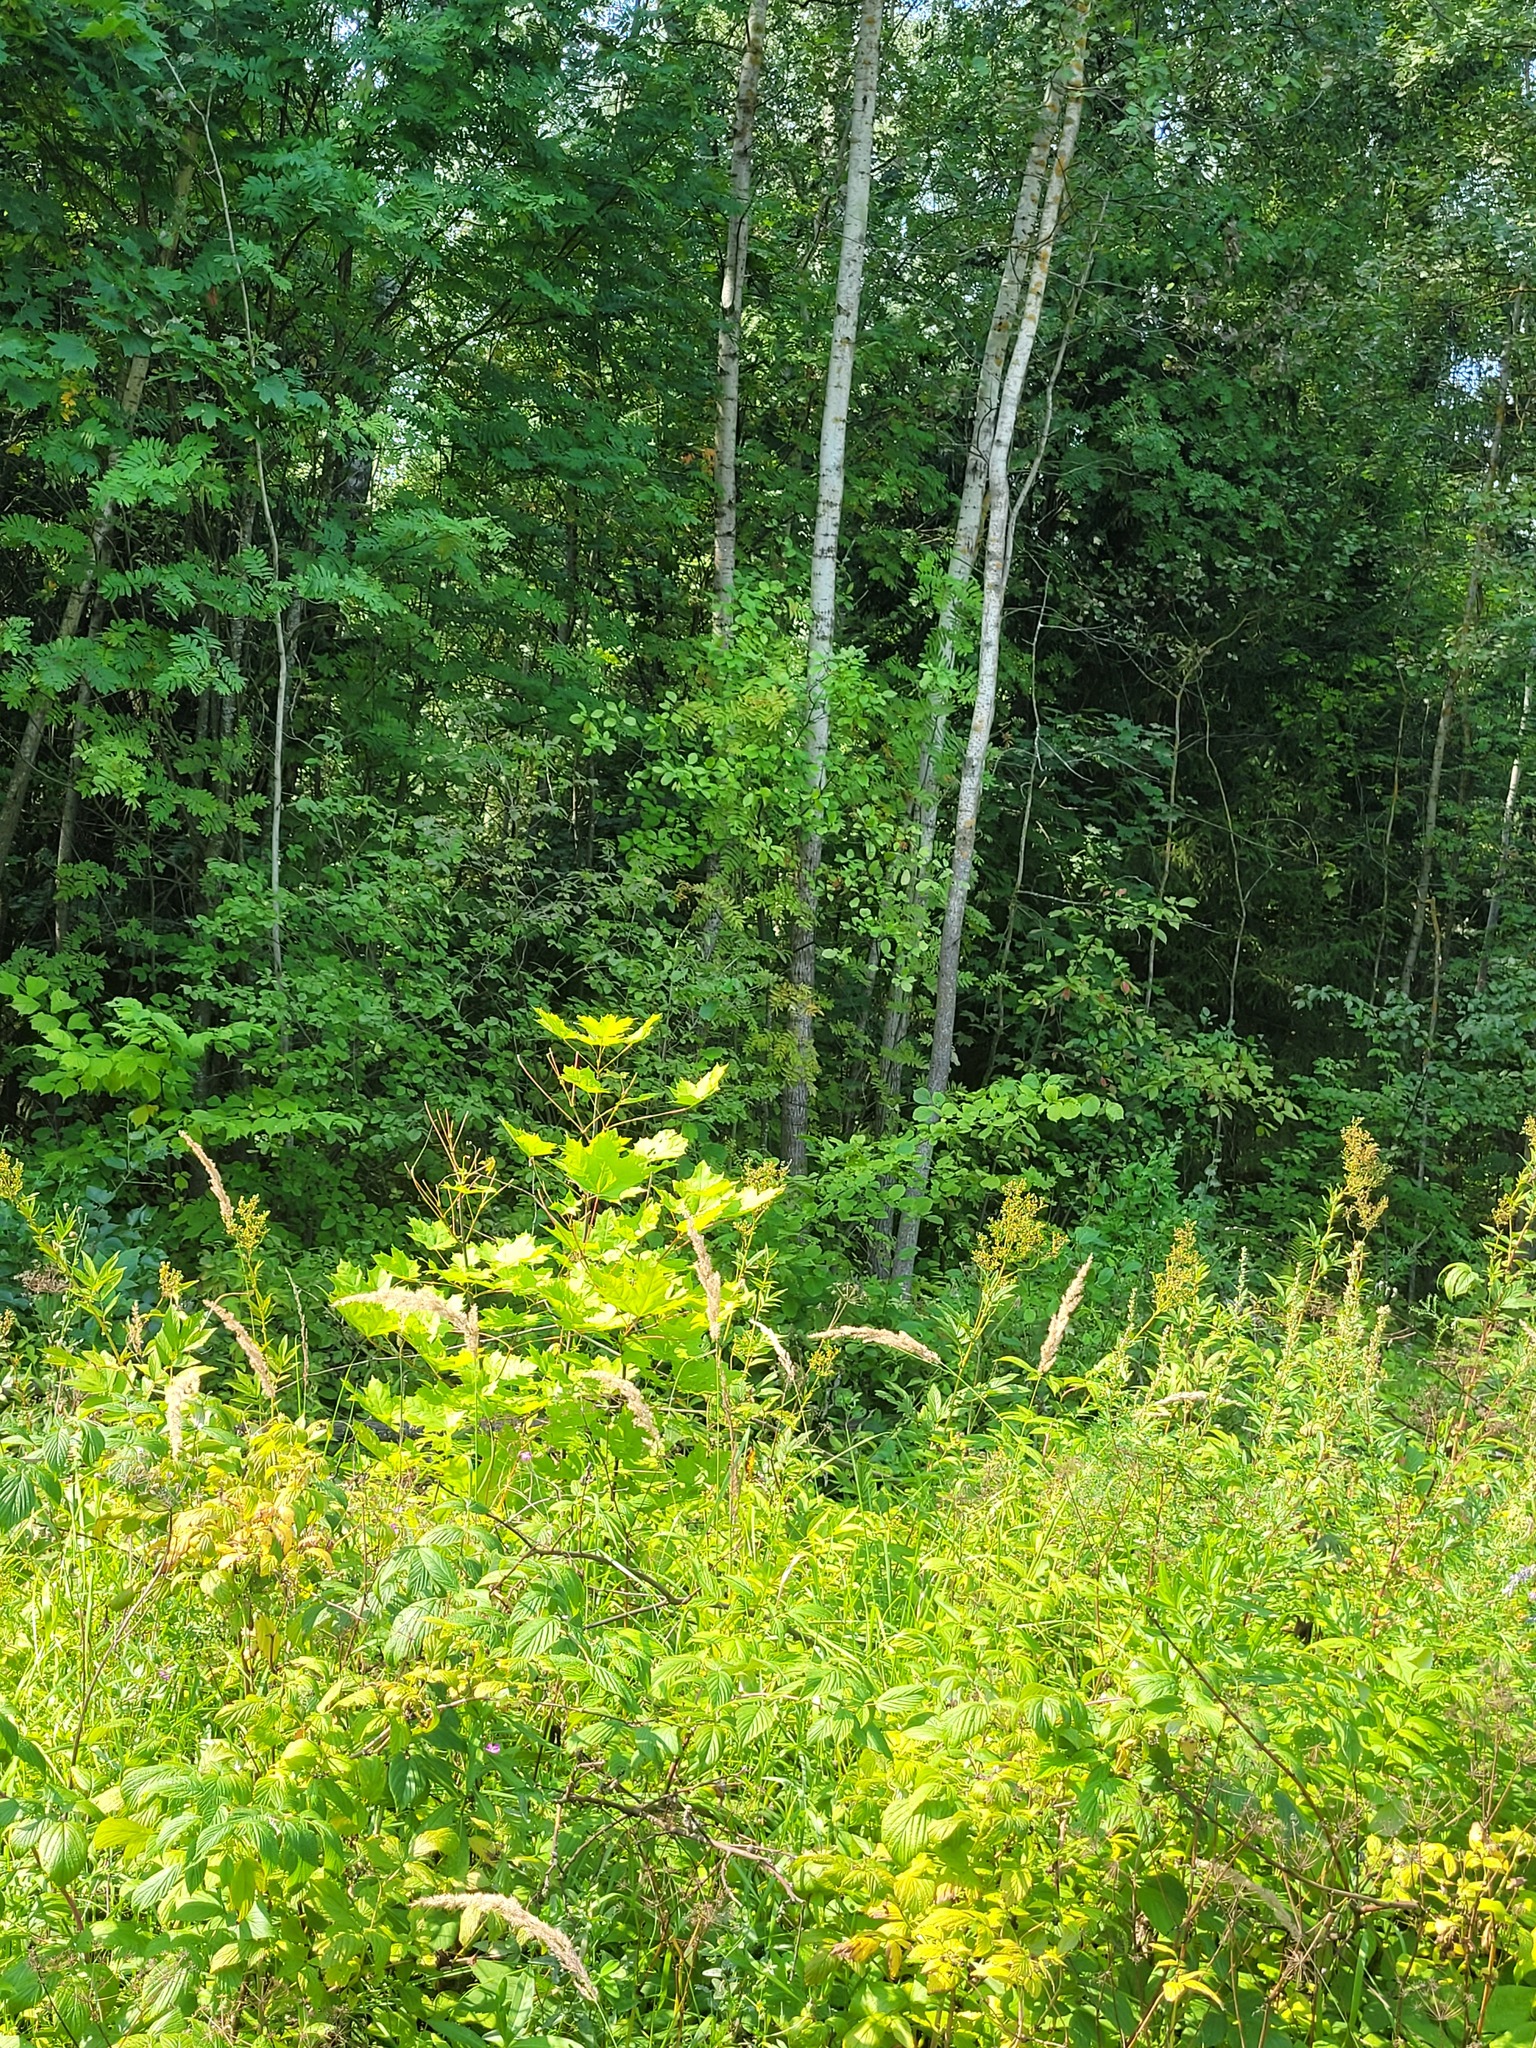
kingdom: Plantae
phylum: Tracheophyta
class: Magnoliopsida
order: Sapindales
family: Sapindaceae
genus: Acer
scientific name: Acer platanoides
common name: Norway maple
